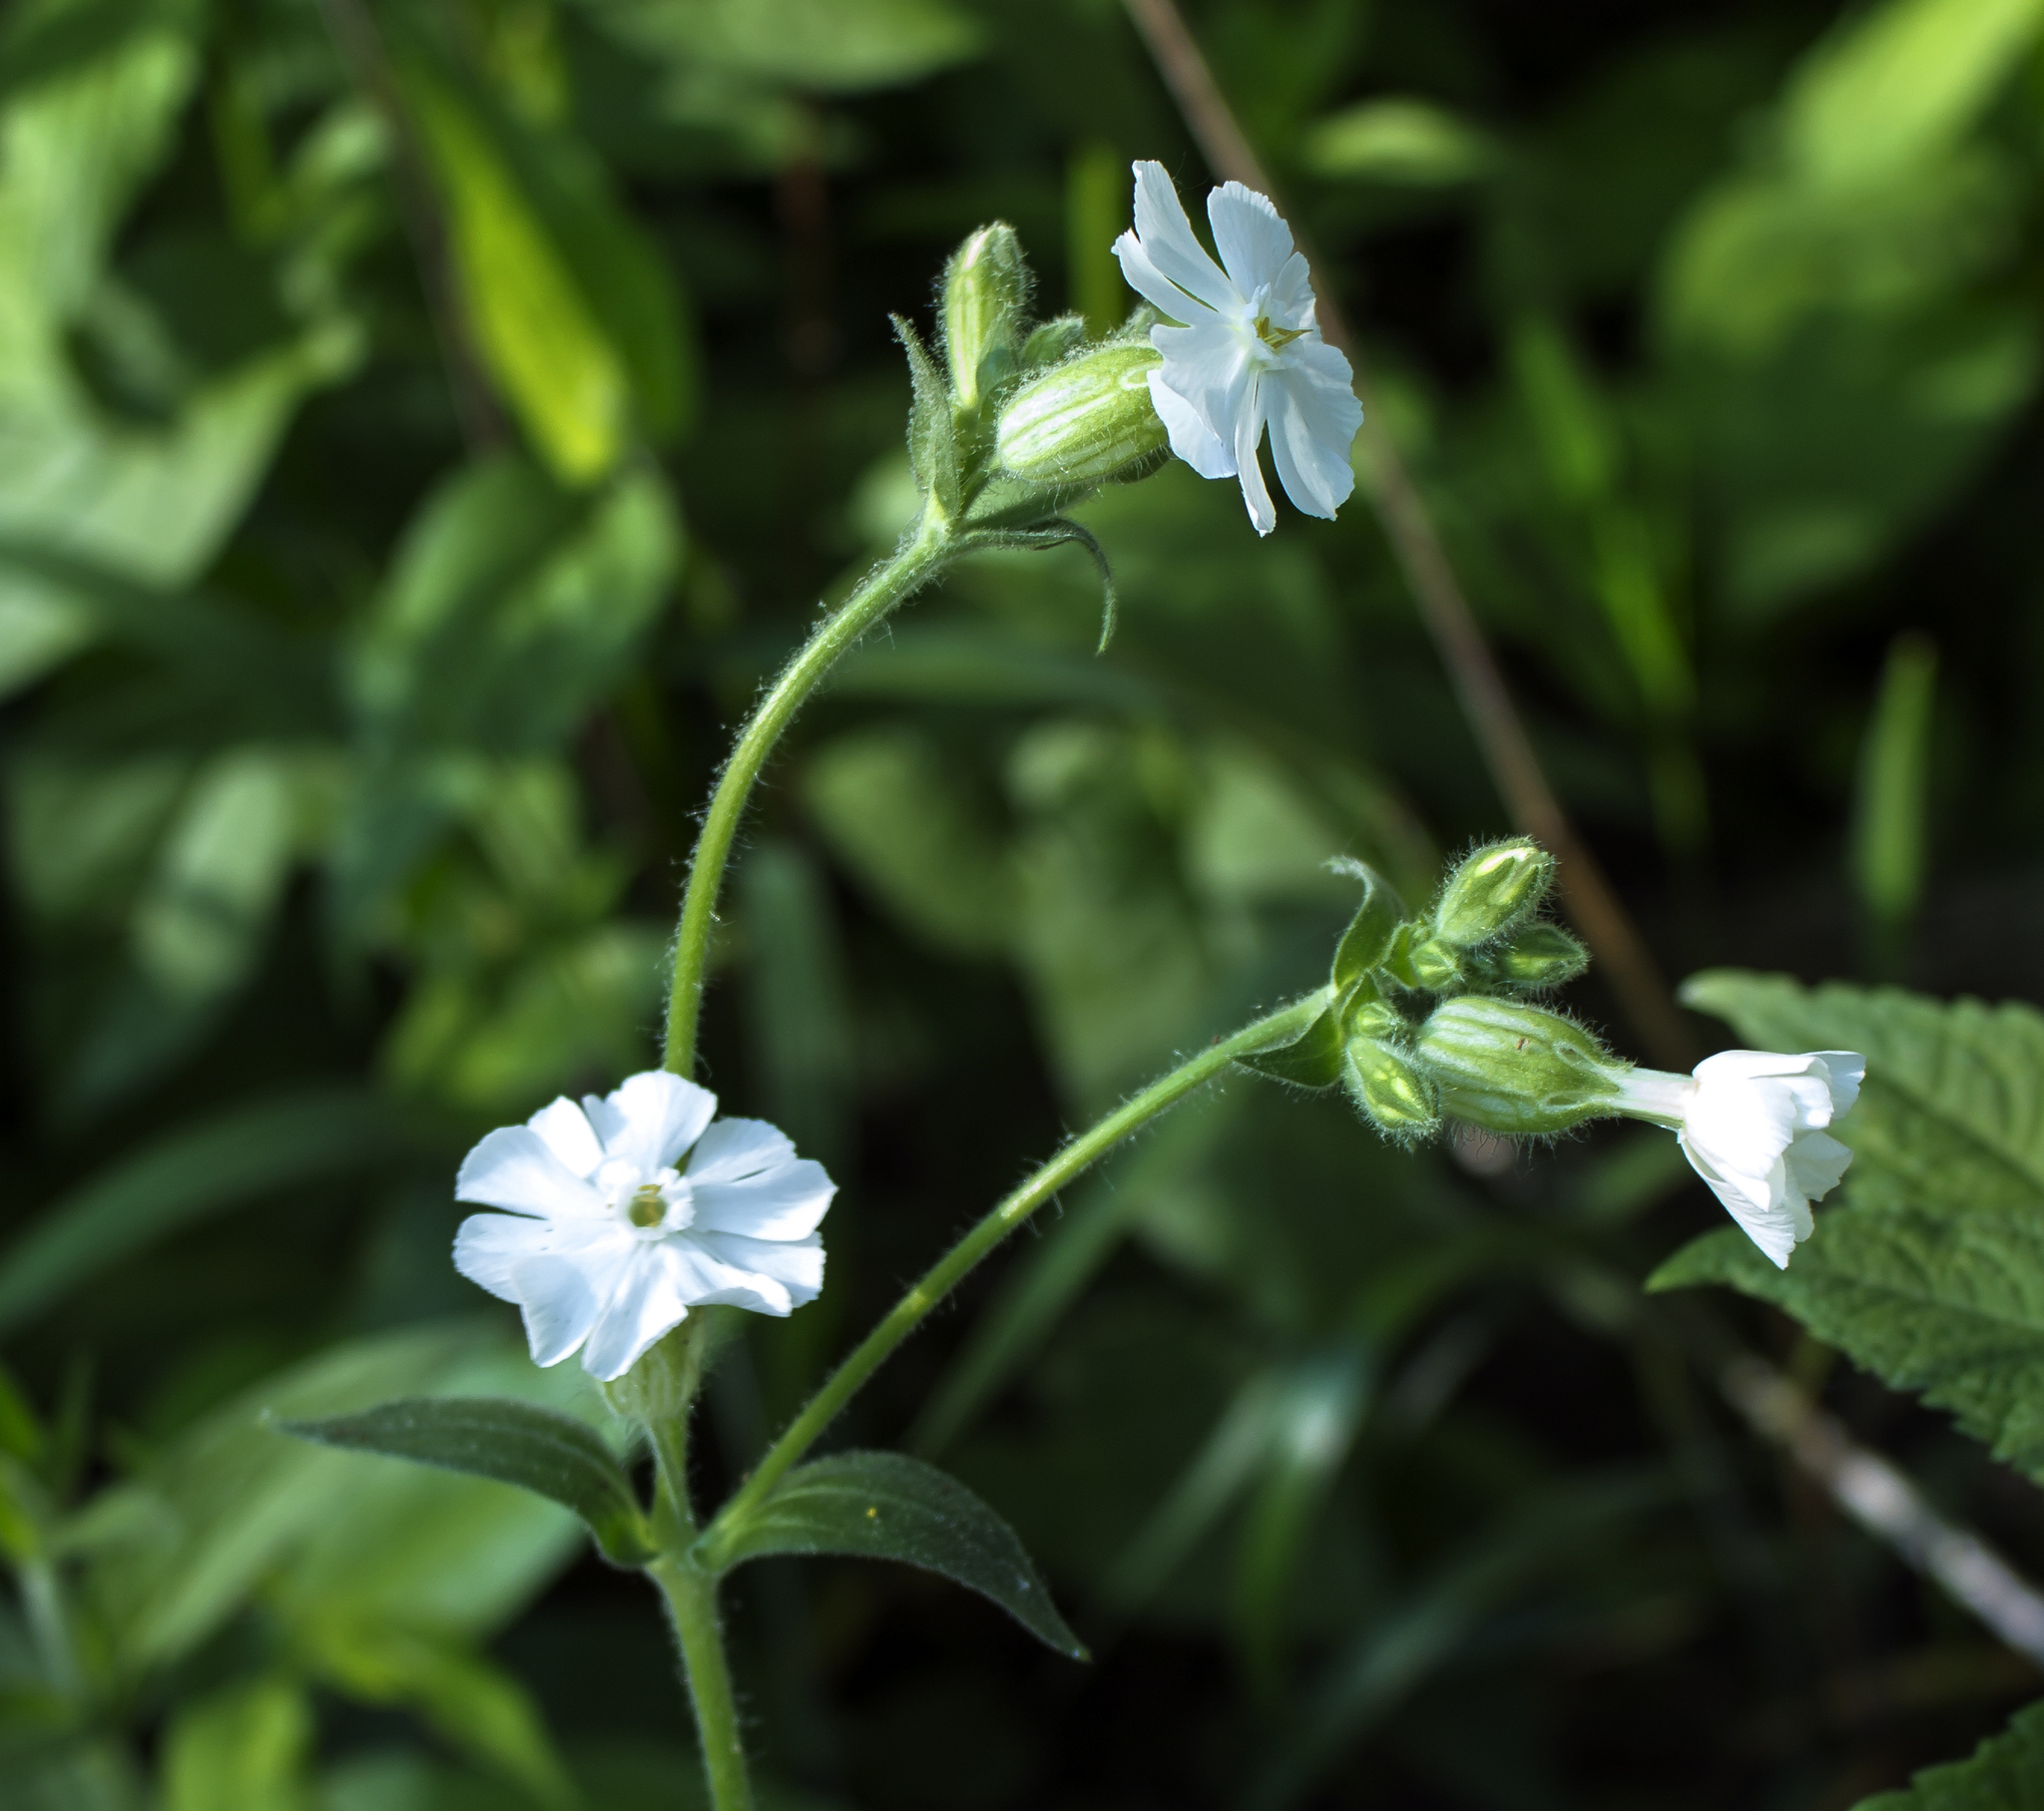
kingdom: Plantae
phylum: Tracheophyta
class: Magnoliopsida
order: Caryophyllales
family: Caryophyllaceae
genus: Silene
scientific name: Silene latifolia
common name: White campion
